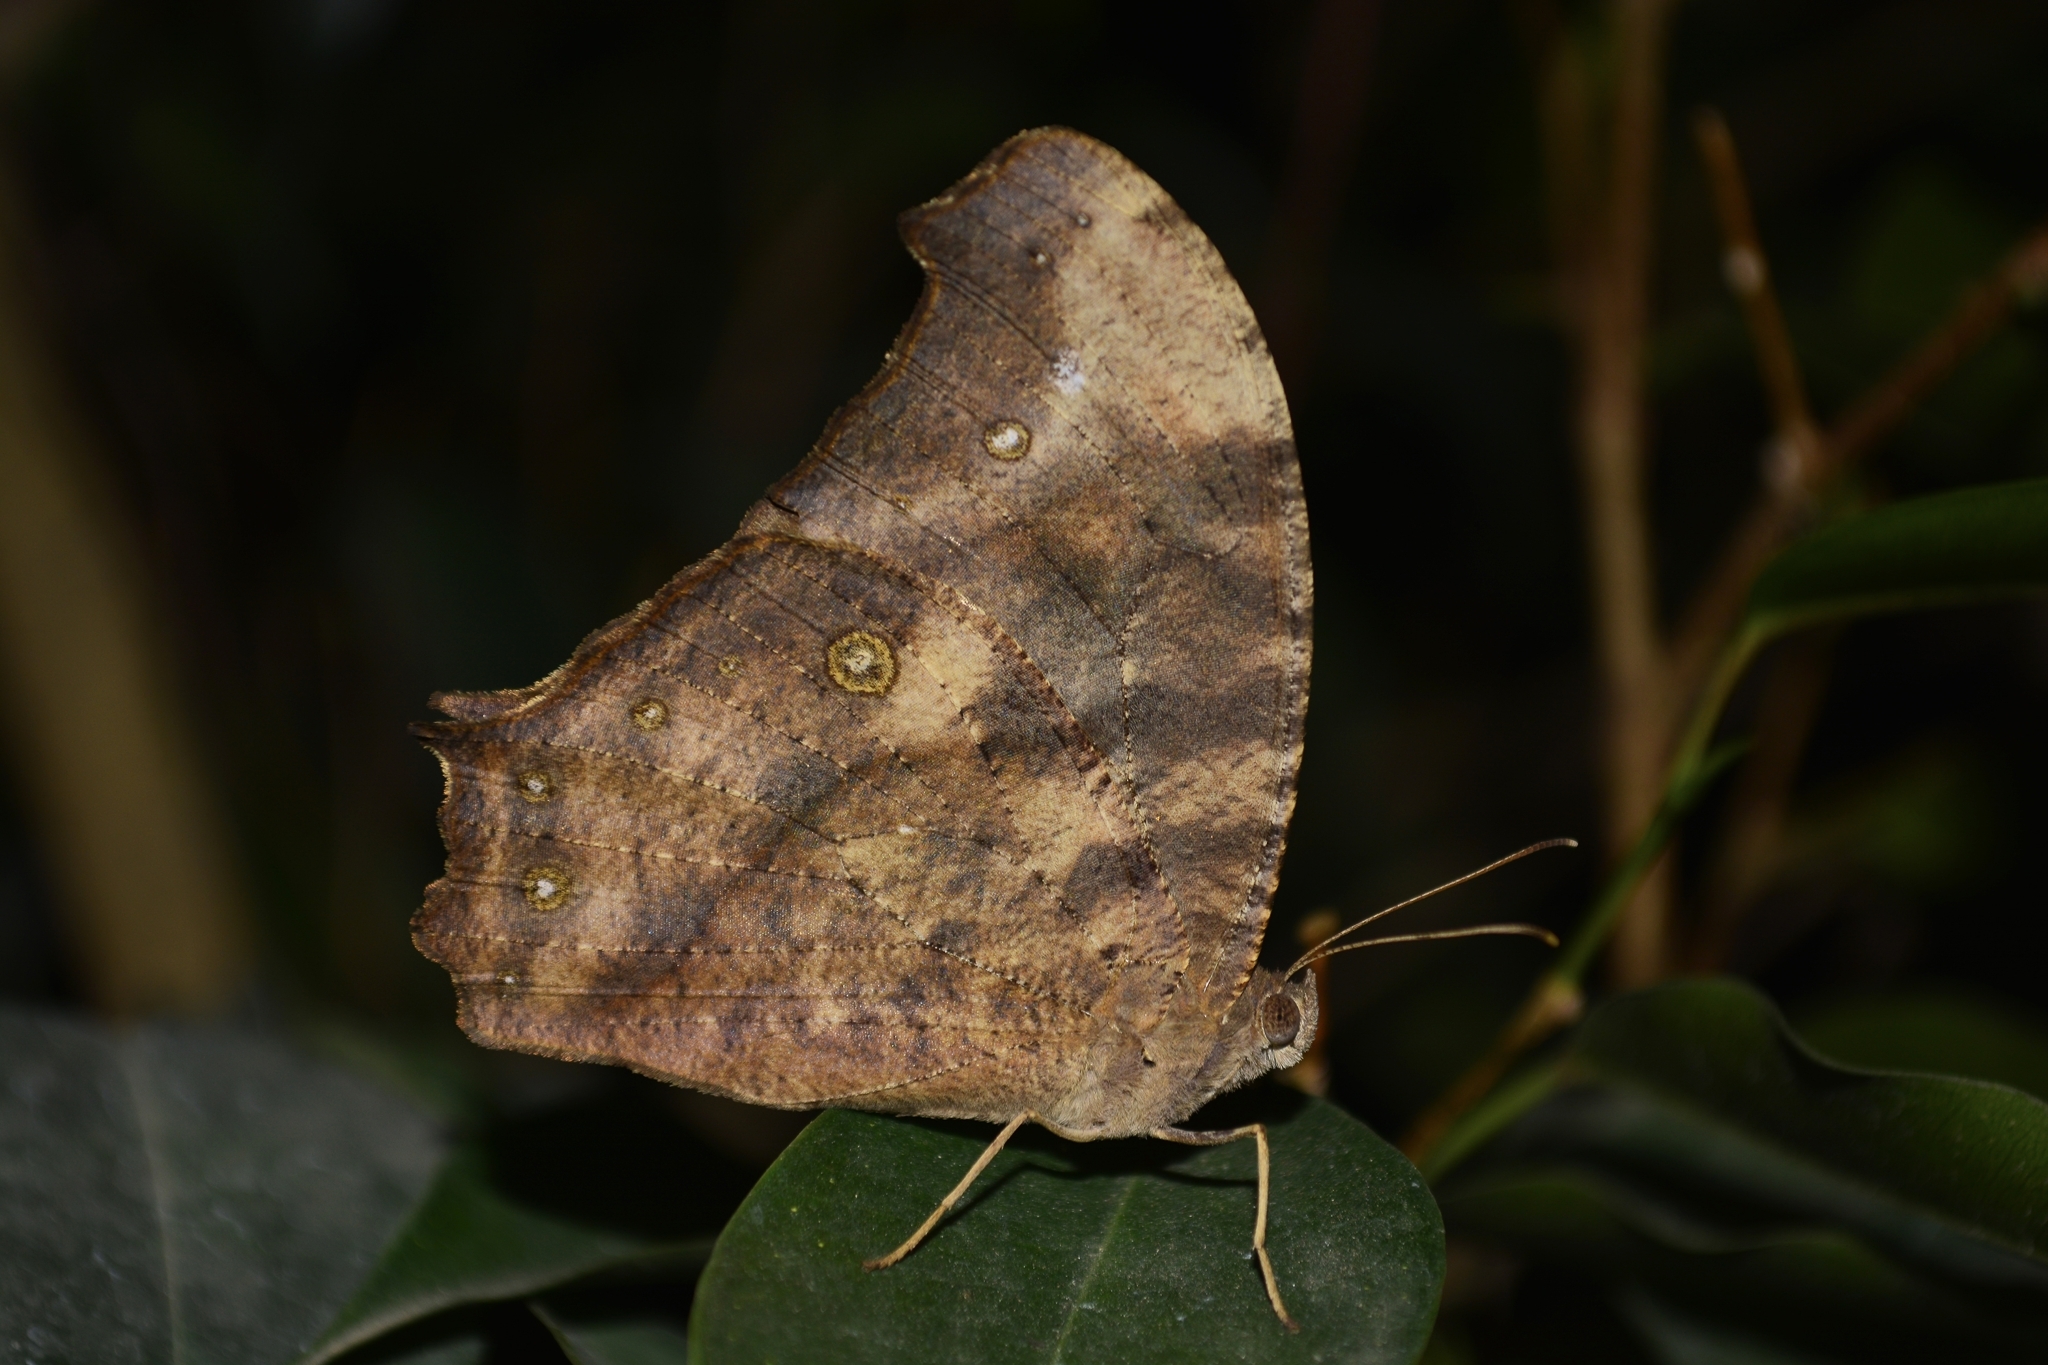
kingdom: Animalia
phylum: Arthropoda
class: Insecta
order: Lepidoptera
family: Nymphalidae
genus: Melanitis
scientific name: Melanitis leda
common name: Twilight brown
